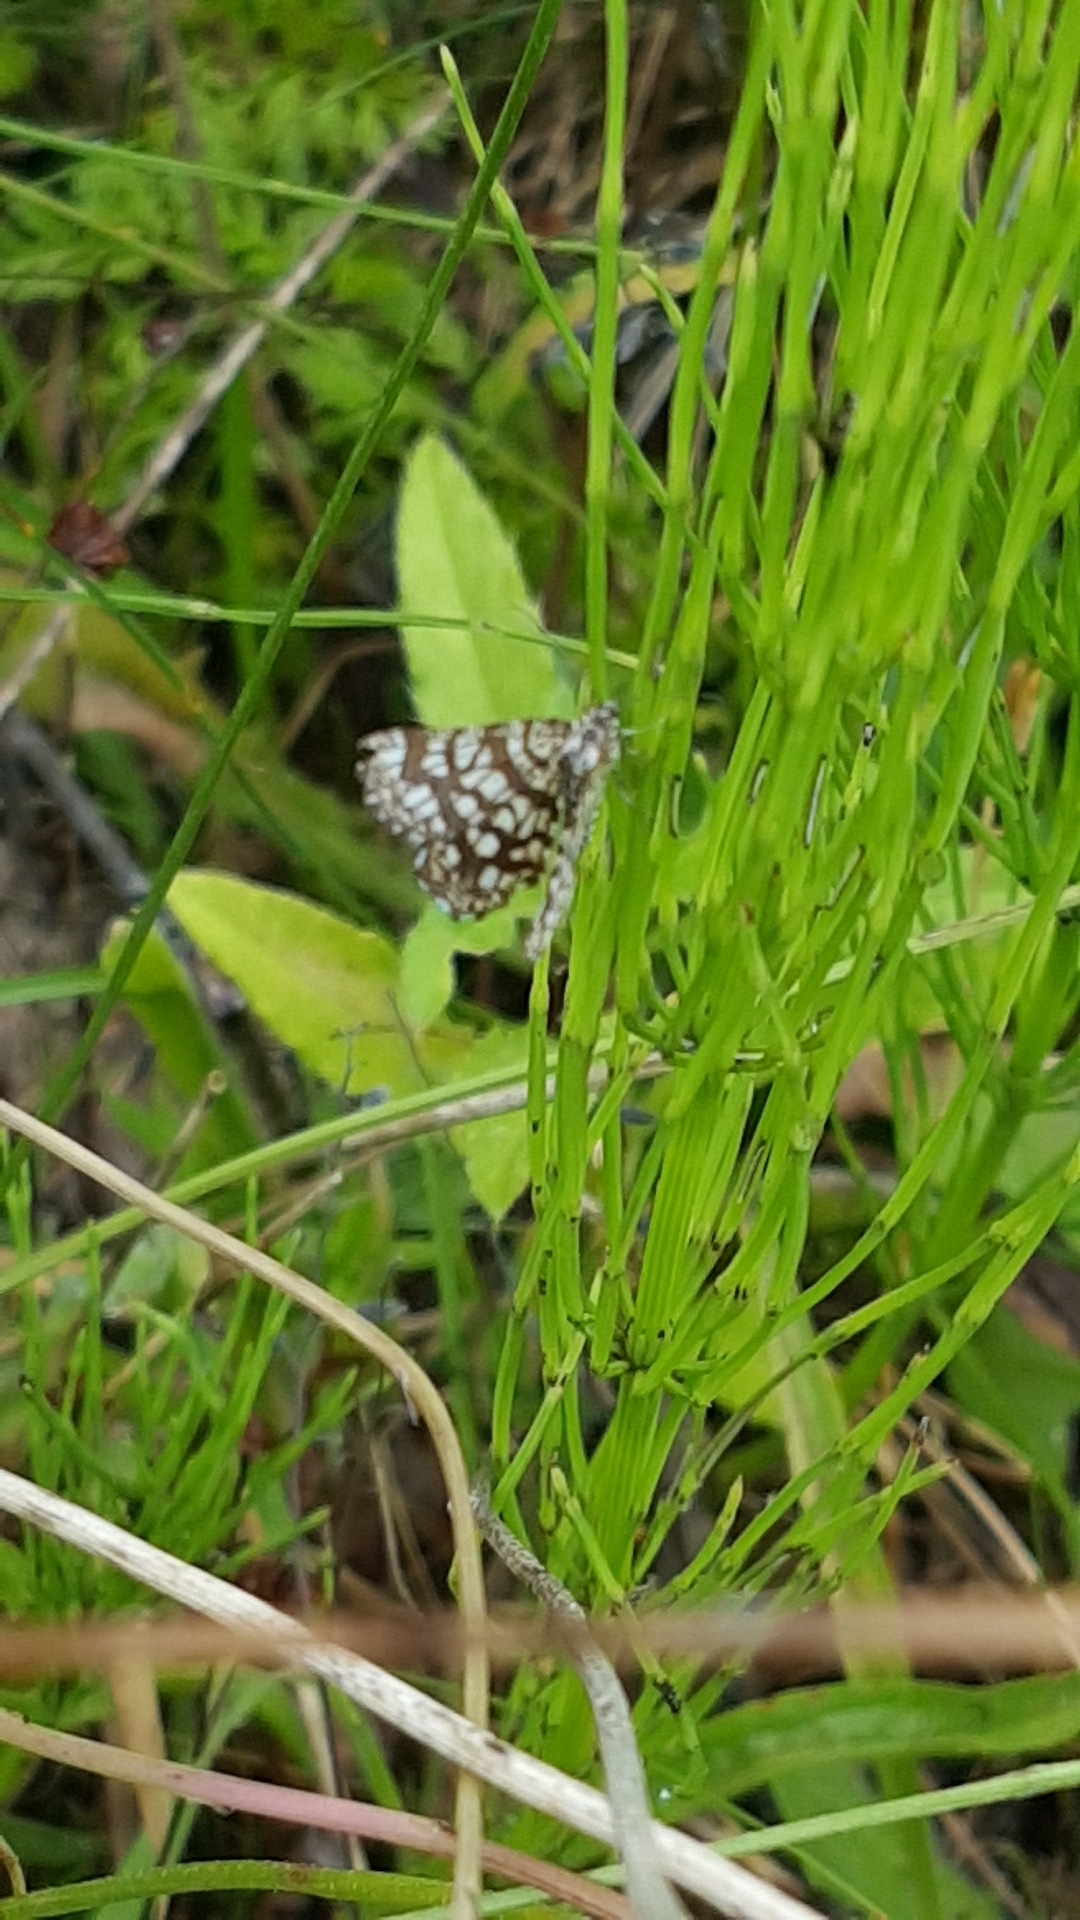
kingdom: Animalia
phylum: Arthropoda
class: Insecta
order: Lepidoptera
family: Geometridae
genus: Chiasmia
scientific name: Chiasmia clathrata
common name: Latticed heath
